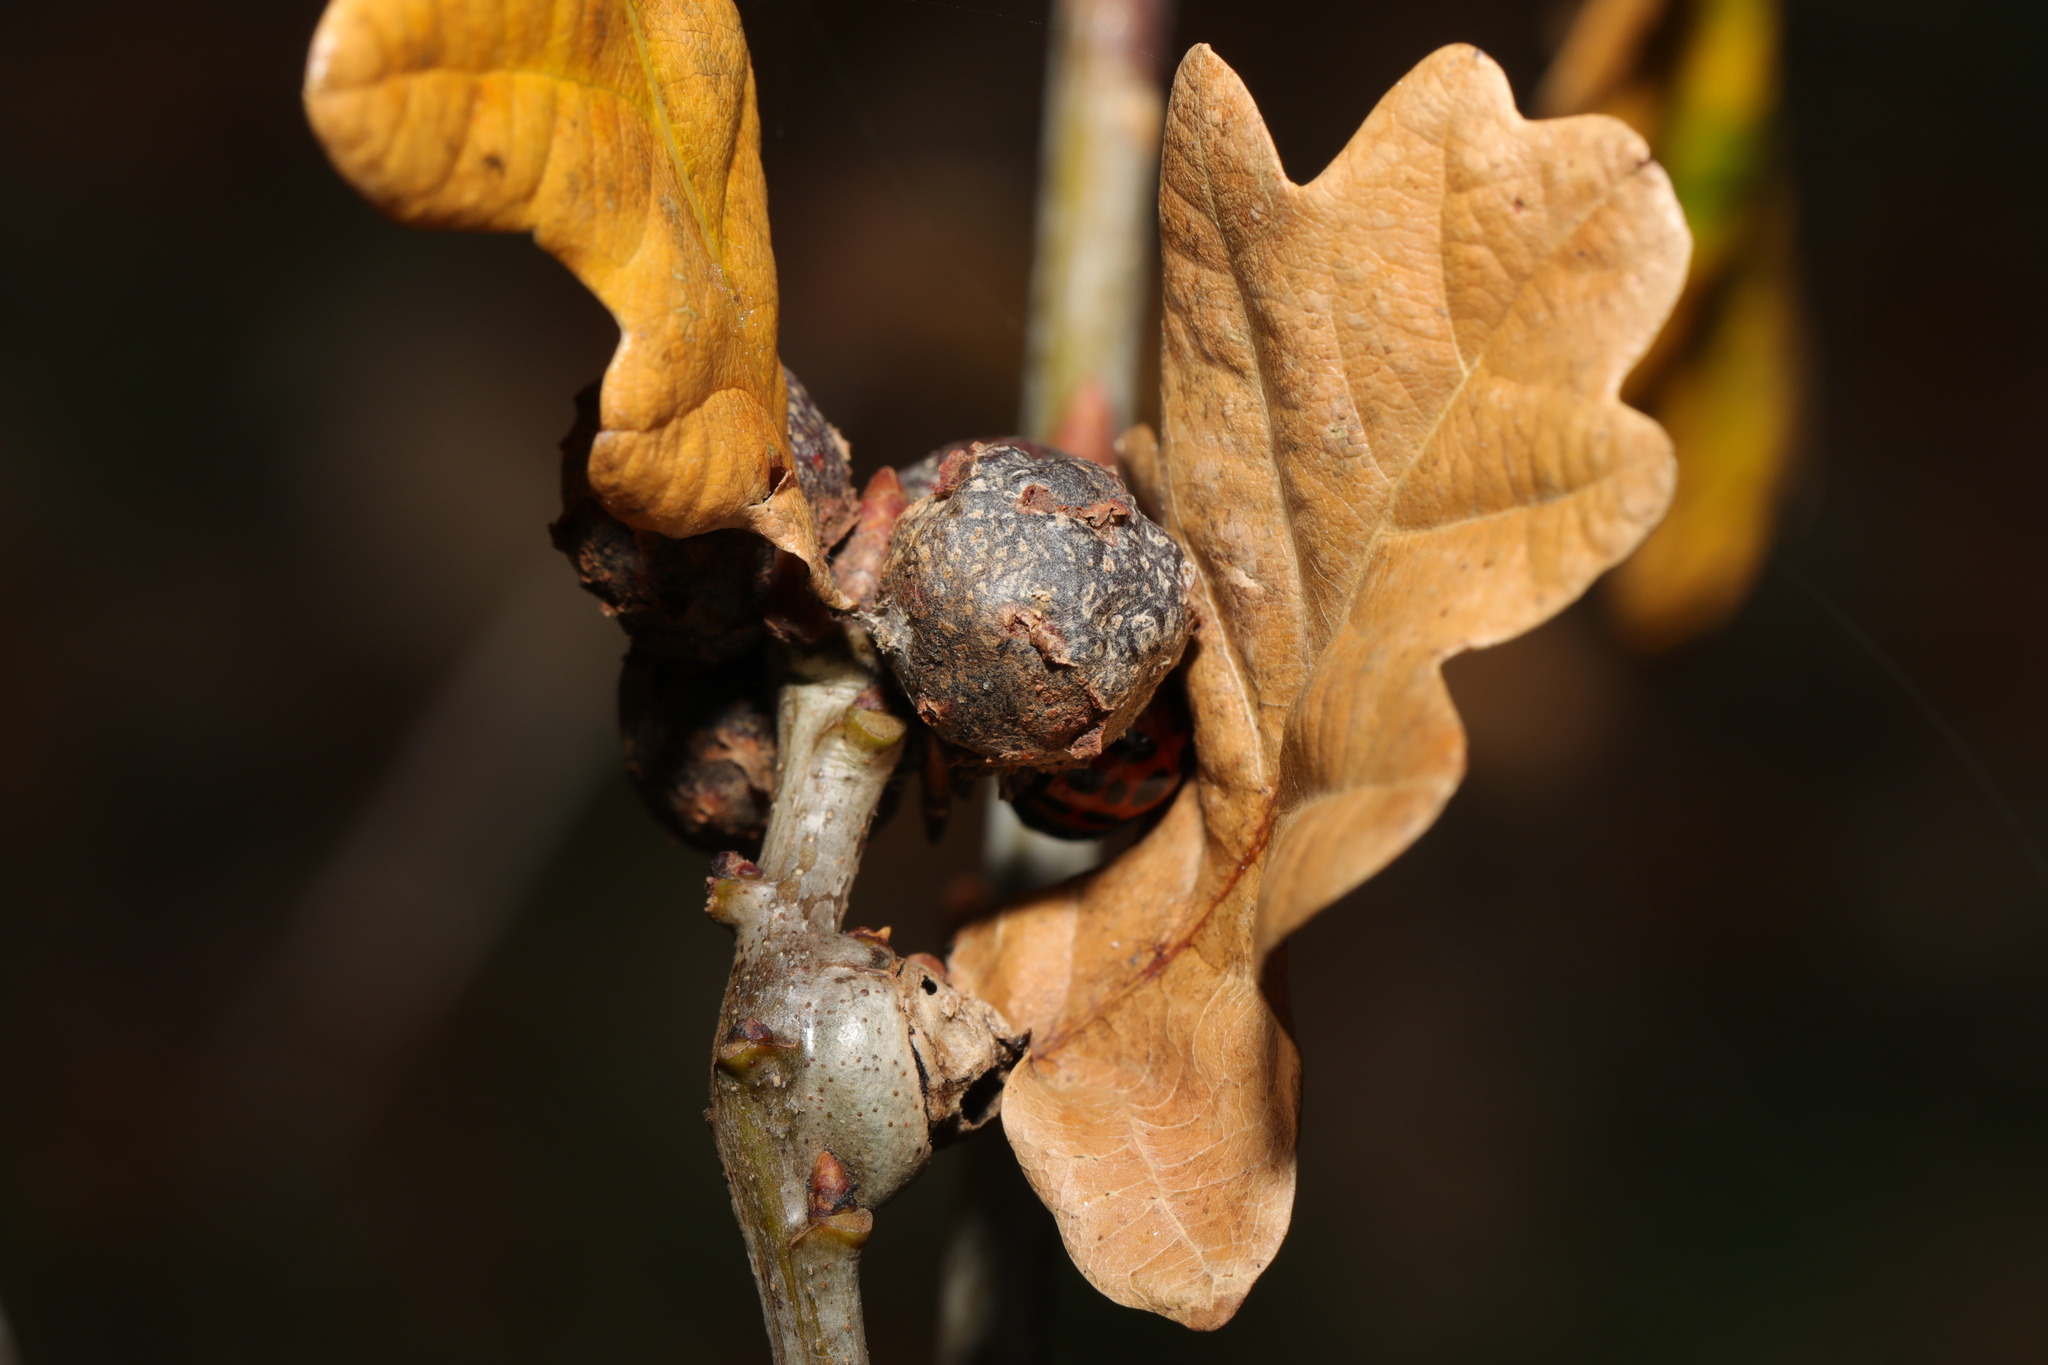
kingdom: Animalia
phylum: Arthropoda
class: Insecta
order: Hymenoptera
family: Cynipidae
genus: Andricus
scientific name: Andricus lignicolus
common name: Cola-nut gall
